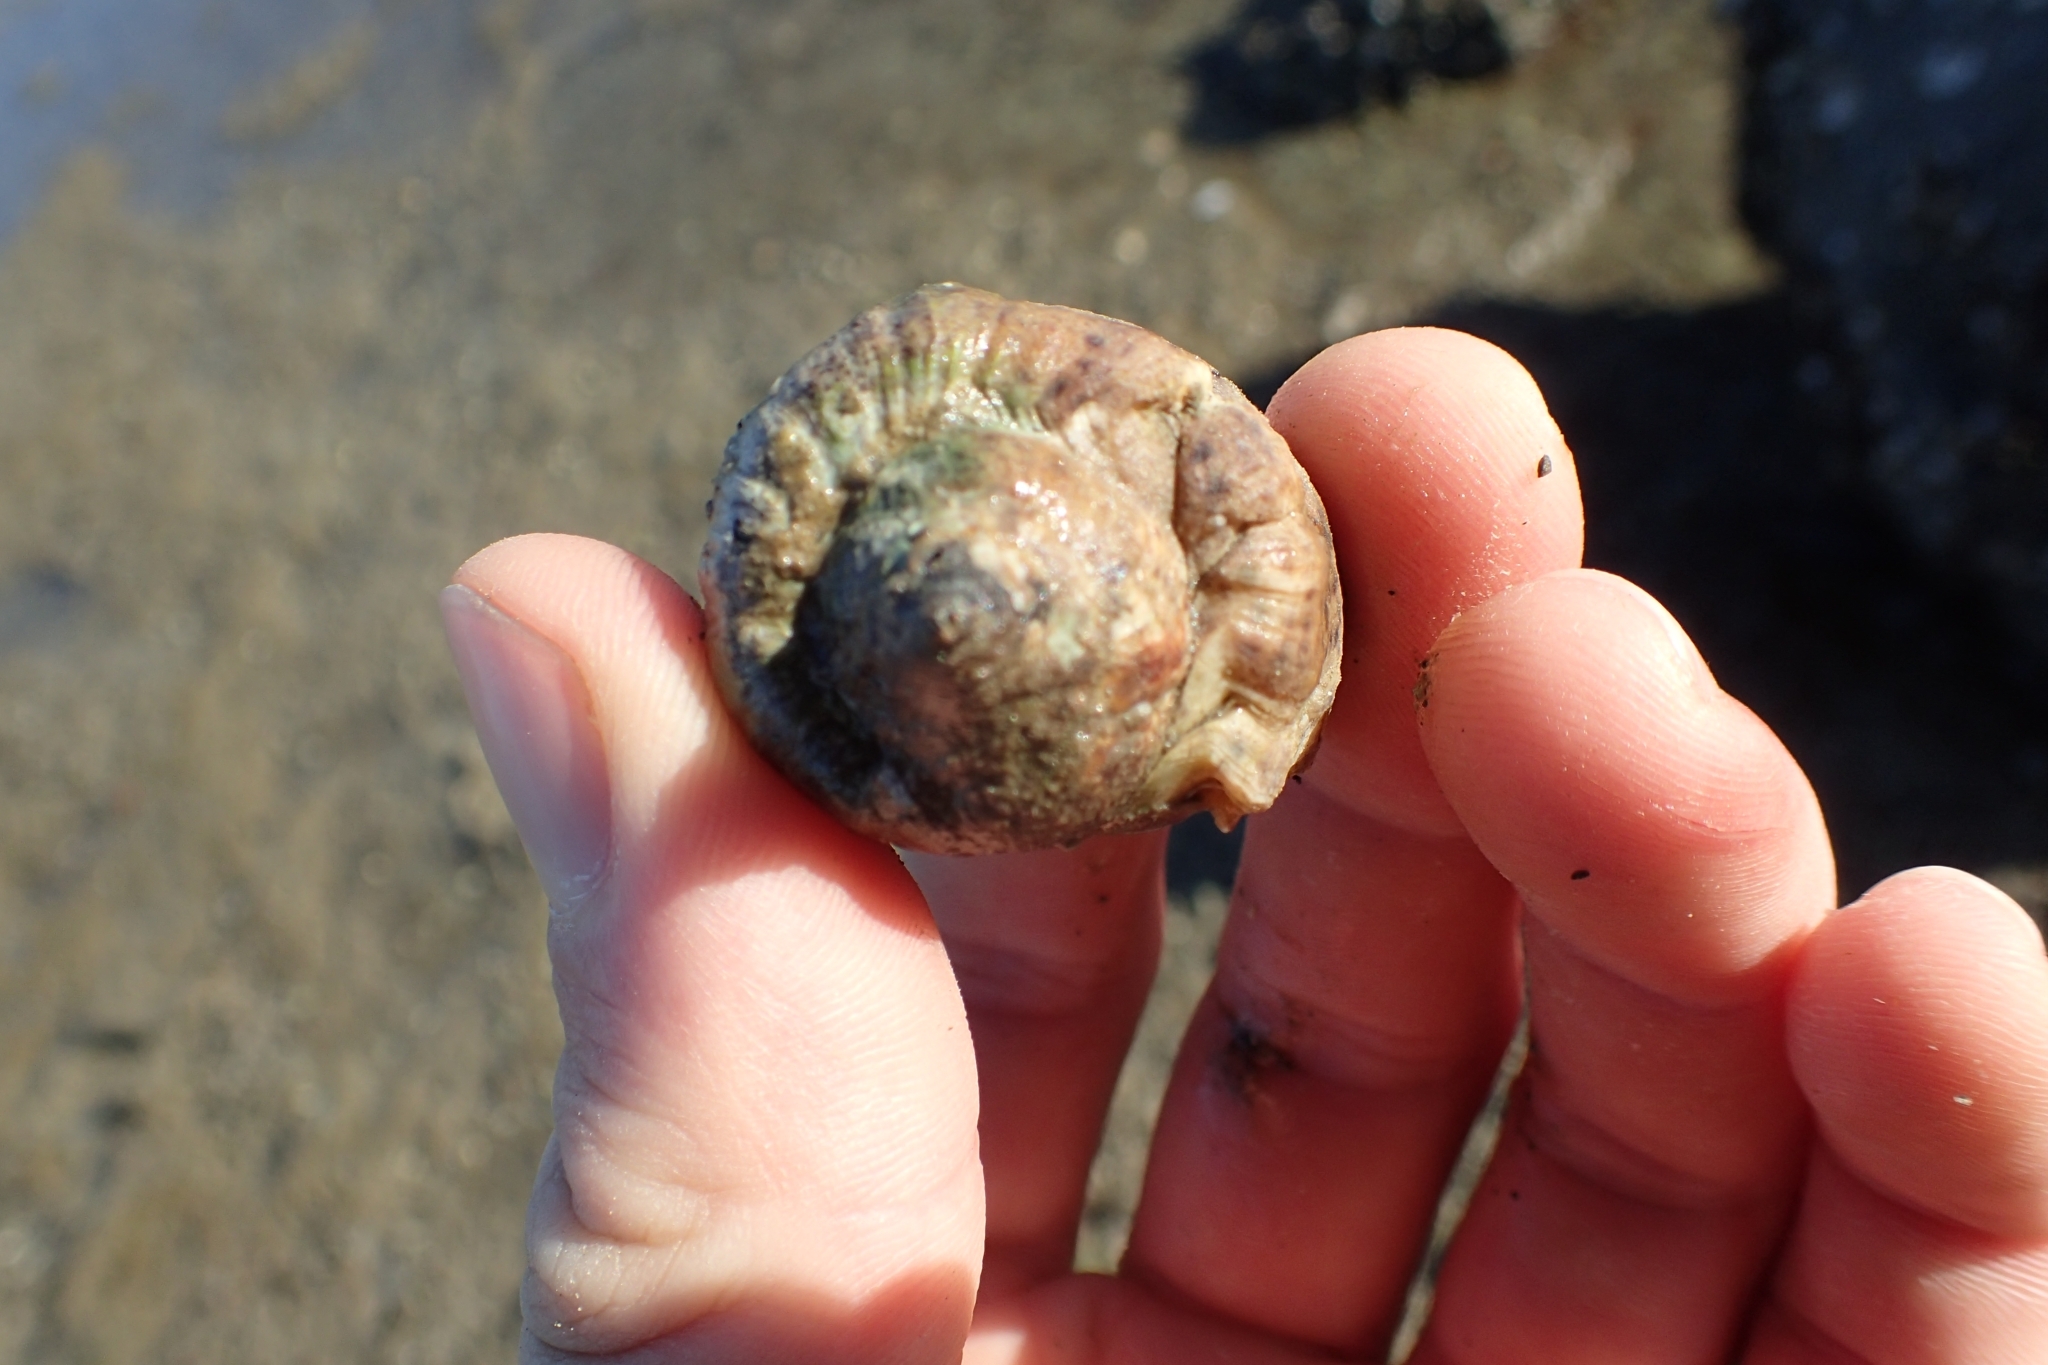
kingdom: Animalia
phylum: Mollusca
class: Gastropoda
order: Neogastropoda
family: Cominellidae
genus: Cominella
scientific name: Cominella adspersa
